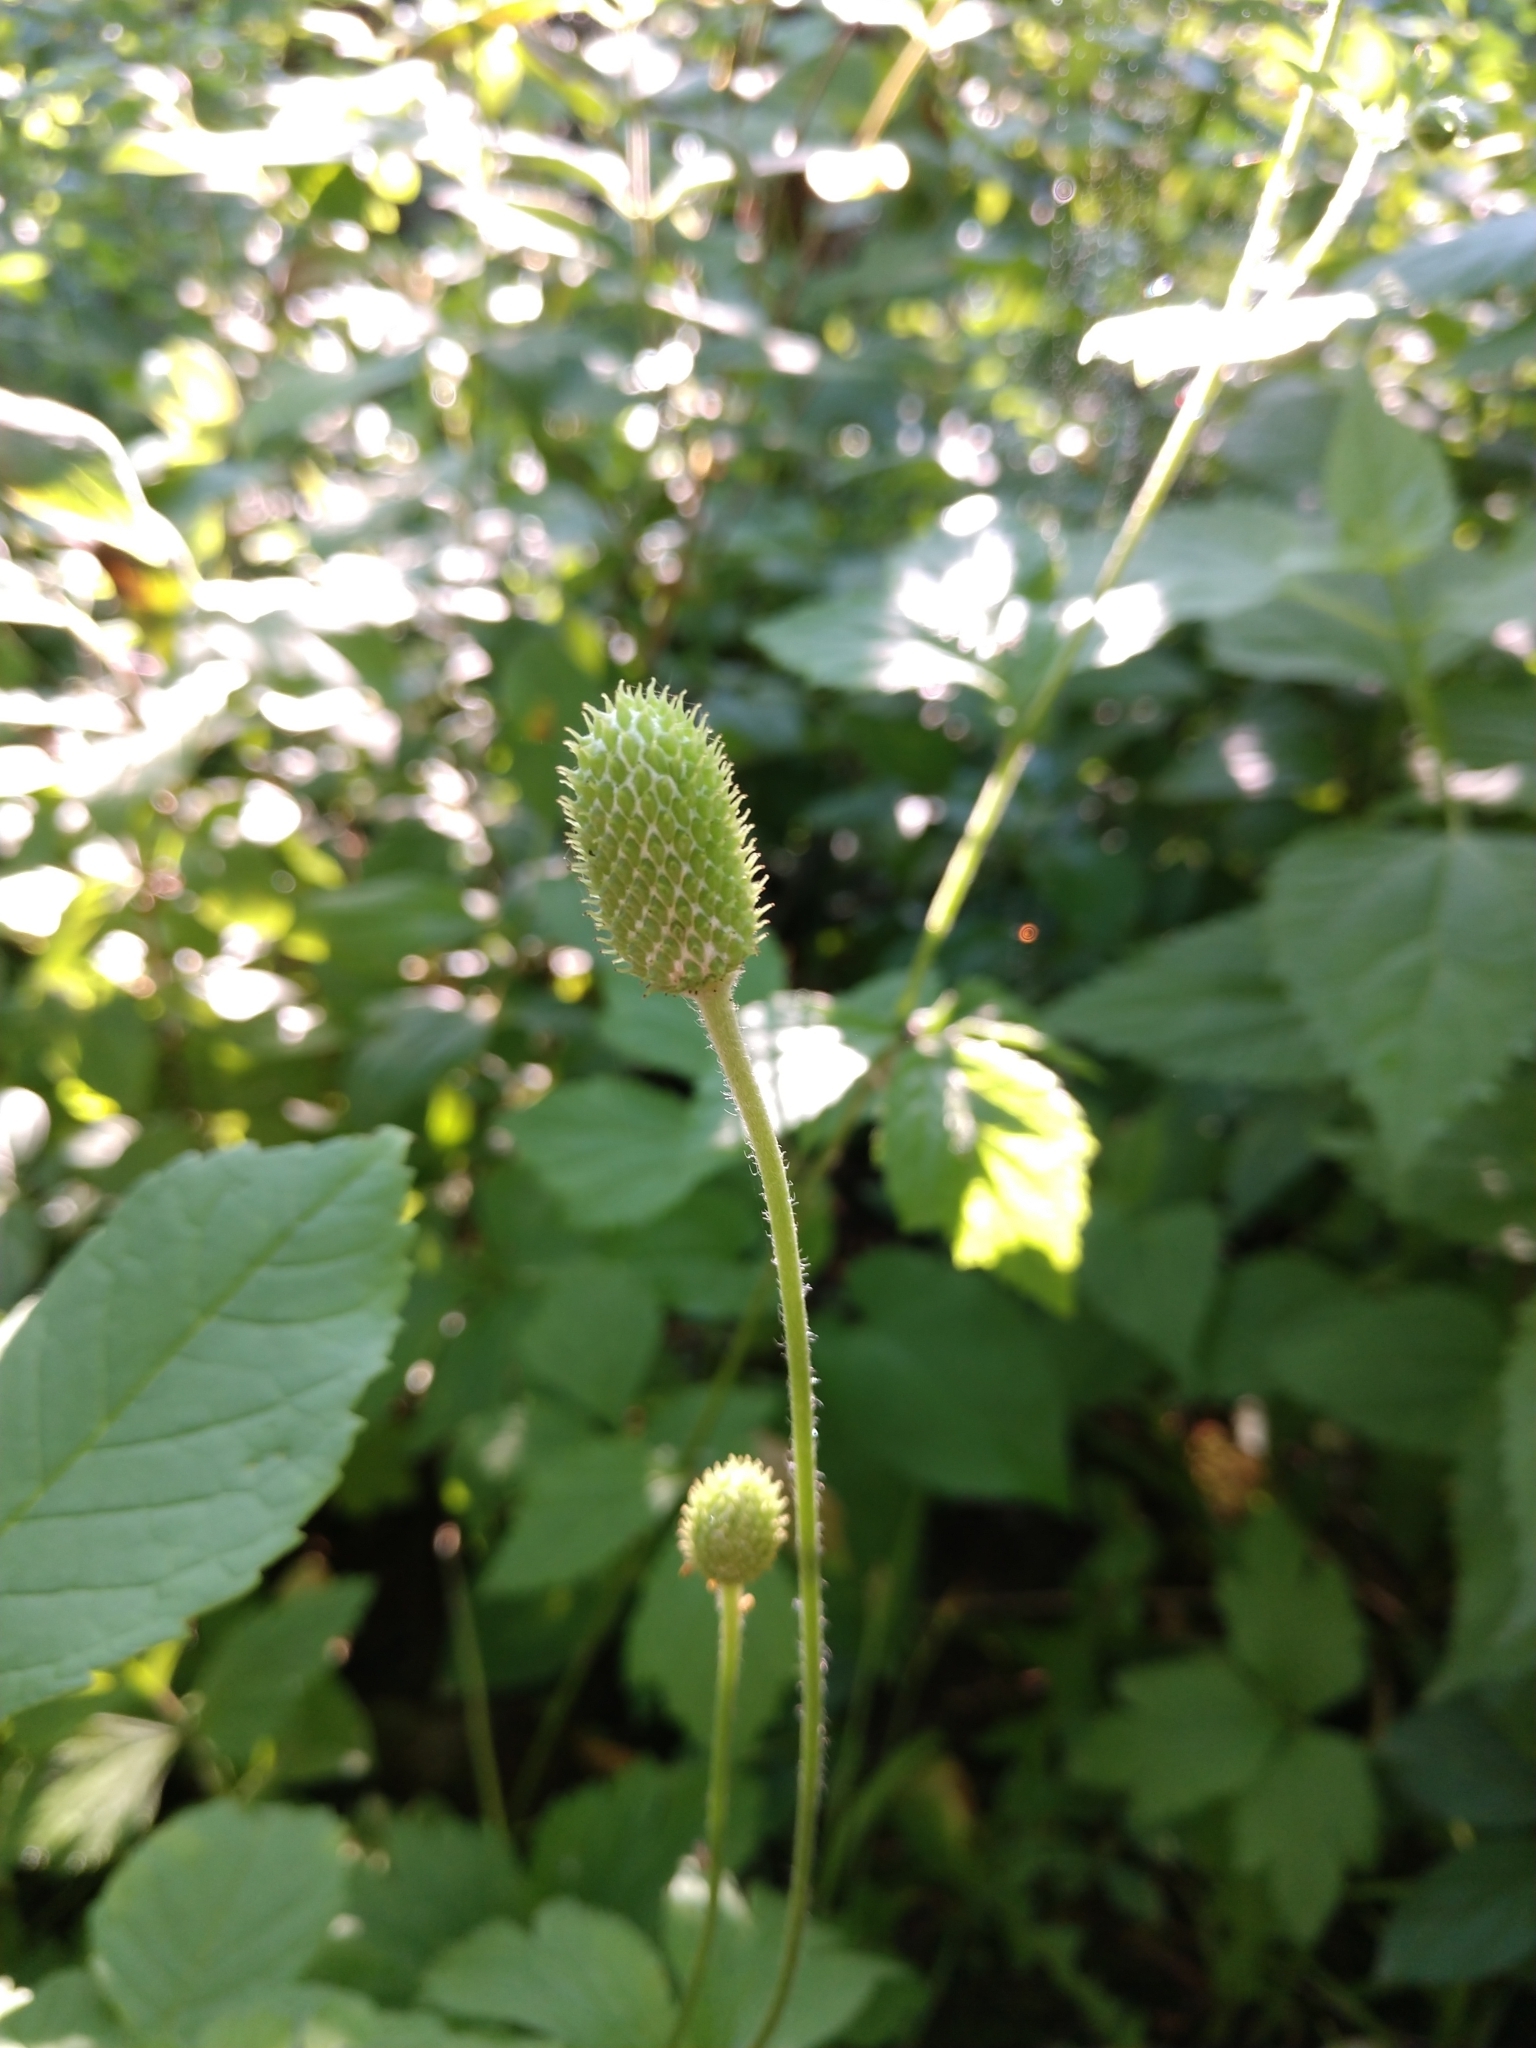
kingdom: Plantae
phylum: Tracheophyta
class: Magnoliopsida
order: Ranunculales
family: Ranunculaceae
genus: Anemone
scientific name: Anemone virginiana
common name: Tall anemone
